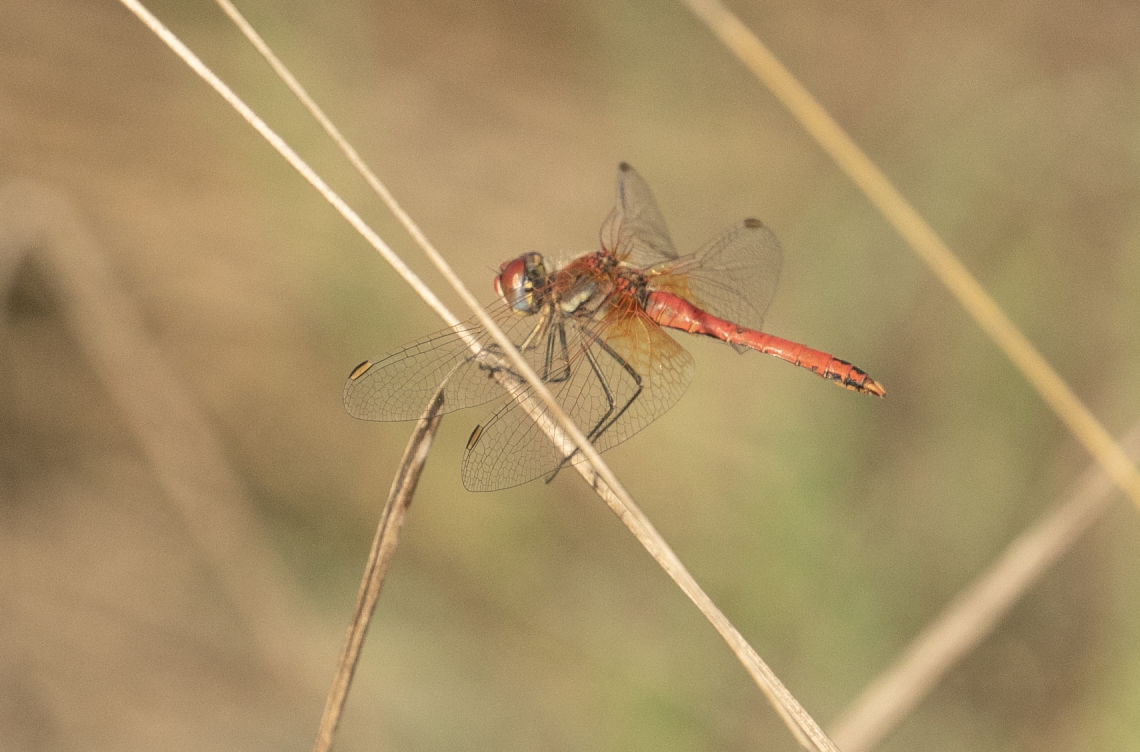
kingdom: Animalia
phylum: Arthropoda
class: Insecta
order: Odonata
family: Libellulidae
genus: Sympetrum
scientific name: Sympetrum fonscolombii
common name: Red-veined darter
